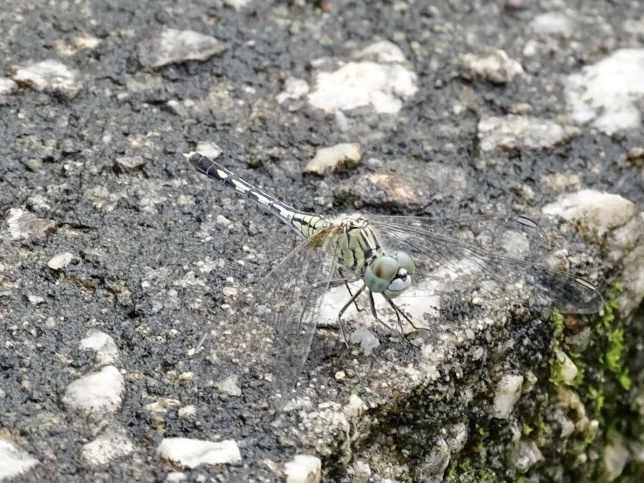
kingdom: Animalia
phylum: Arthropoda
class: Insecta
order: Odonata
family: Libellulidae
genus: Diplacodes
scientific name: Diplacodes trivialis
